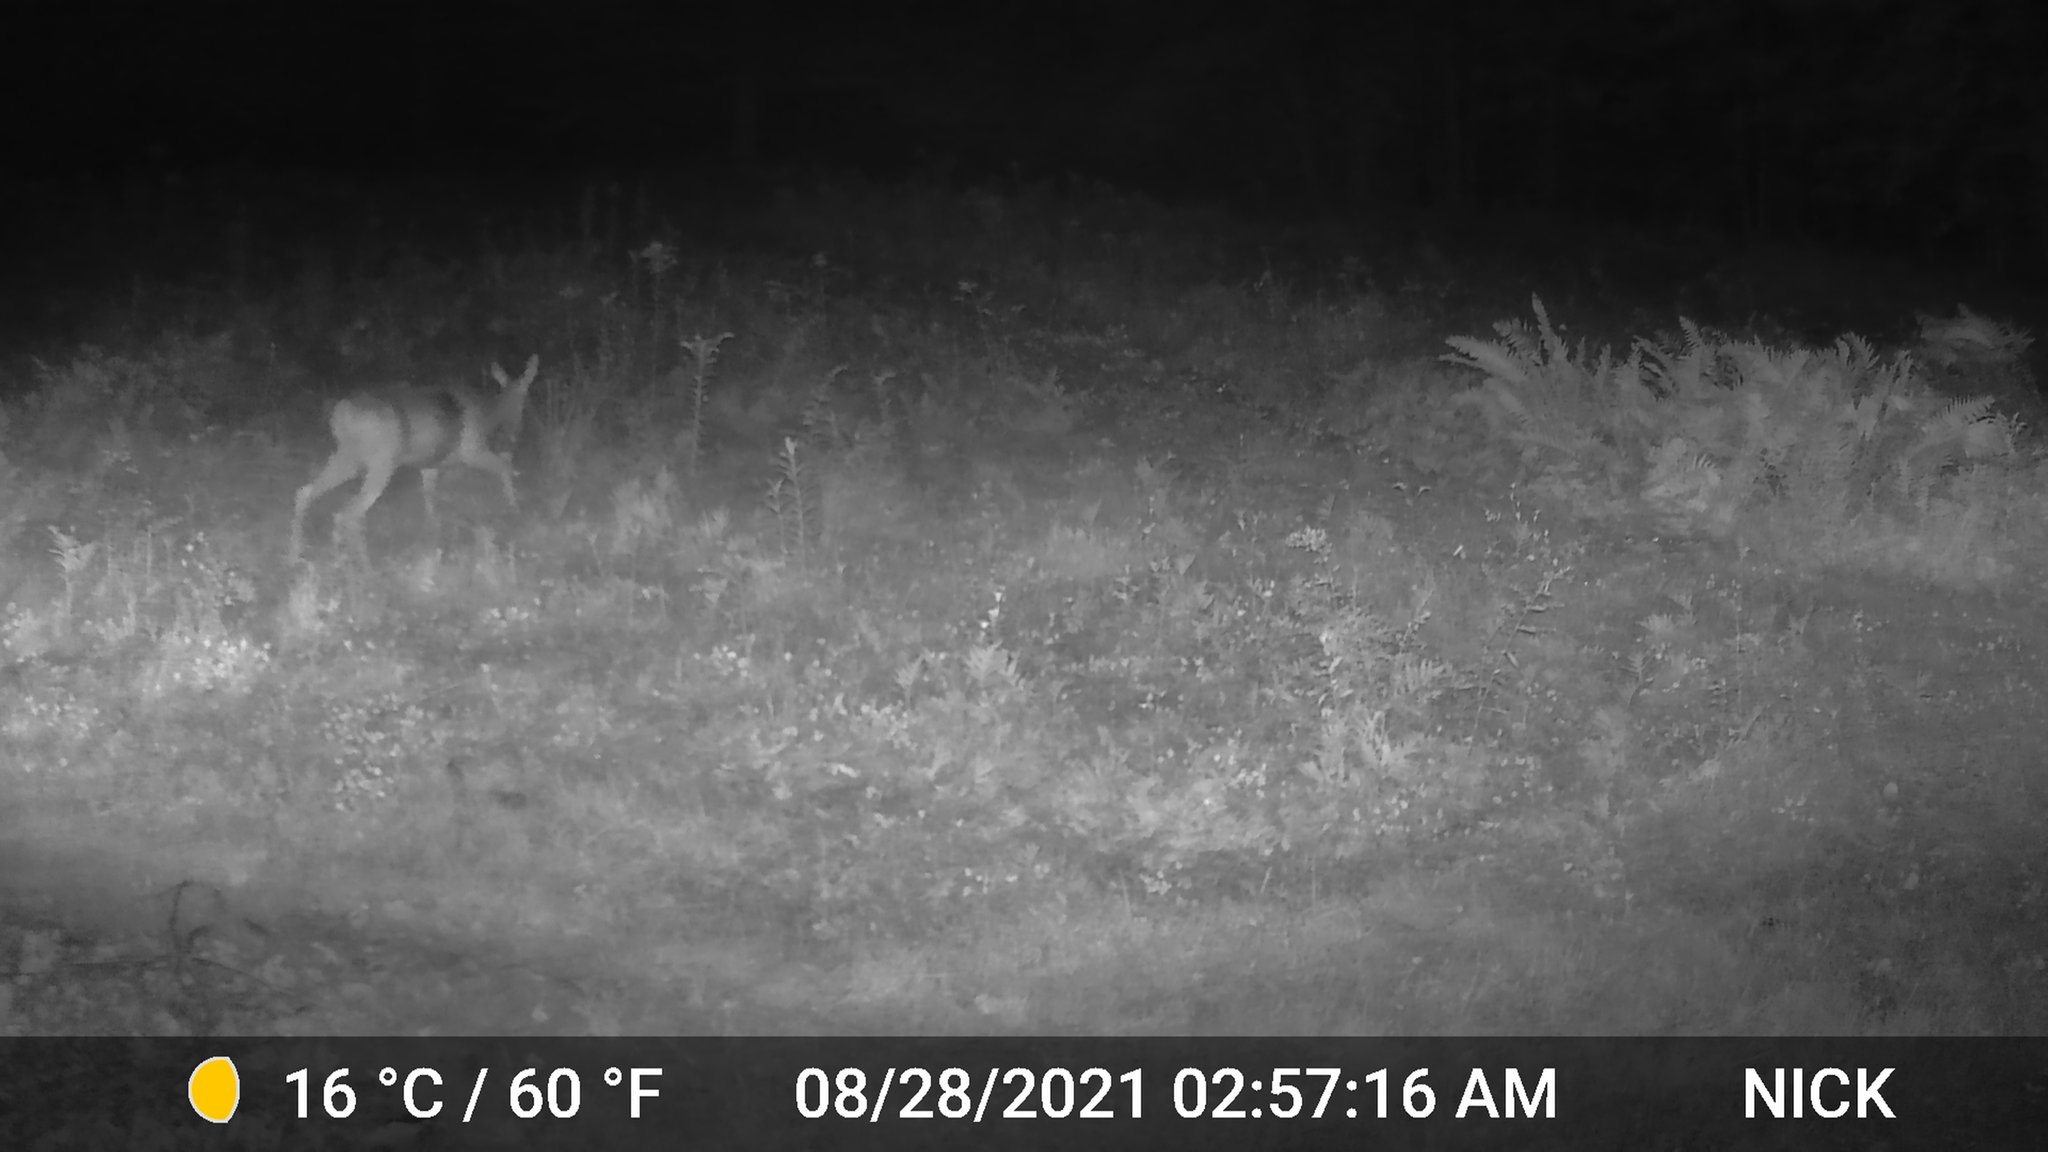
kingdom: Animalia
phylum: Chordata
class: Mammalia
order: Artiodactyla
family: Cervidae
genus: Odocoileus
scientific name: Odocoileus virginianus
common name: White-tailed deer
